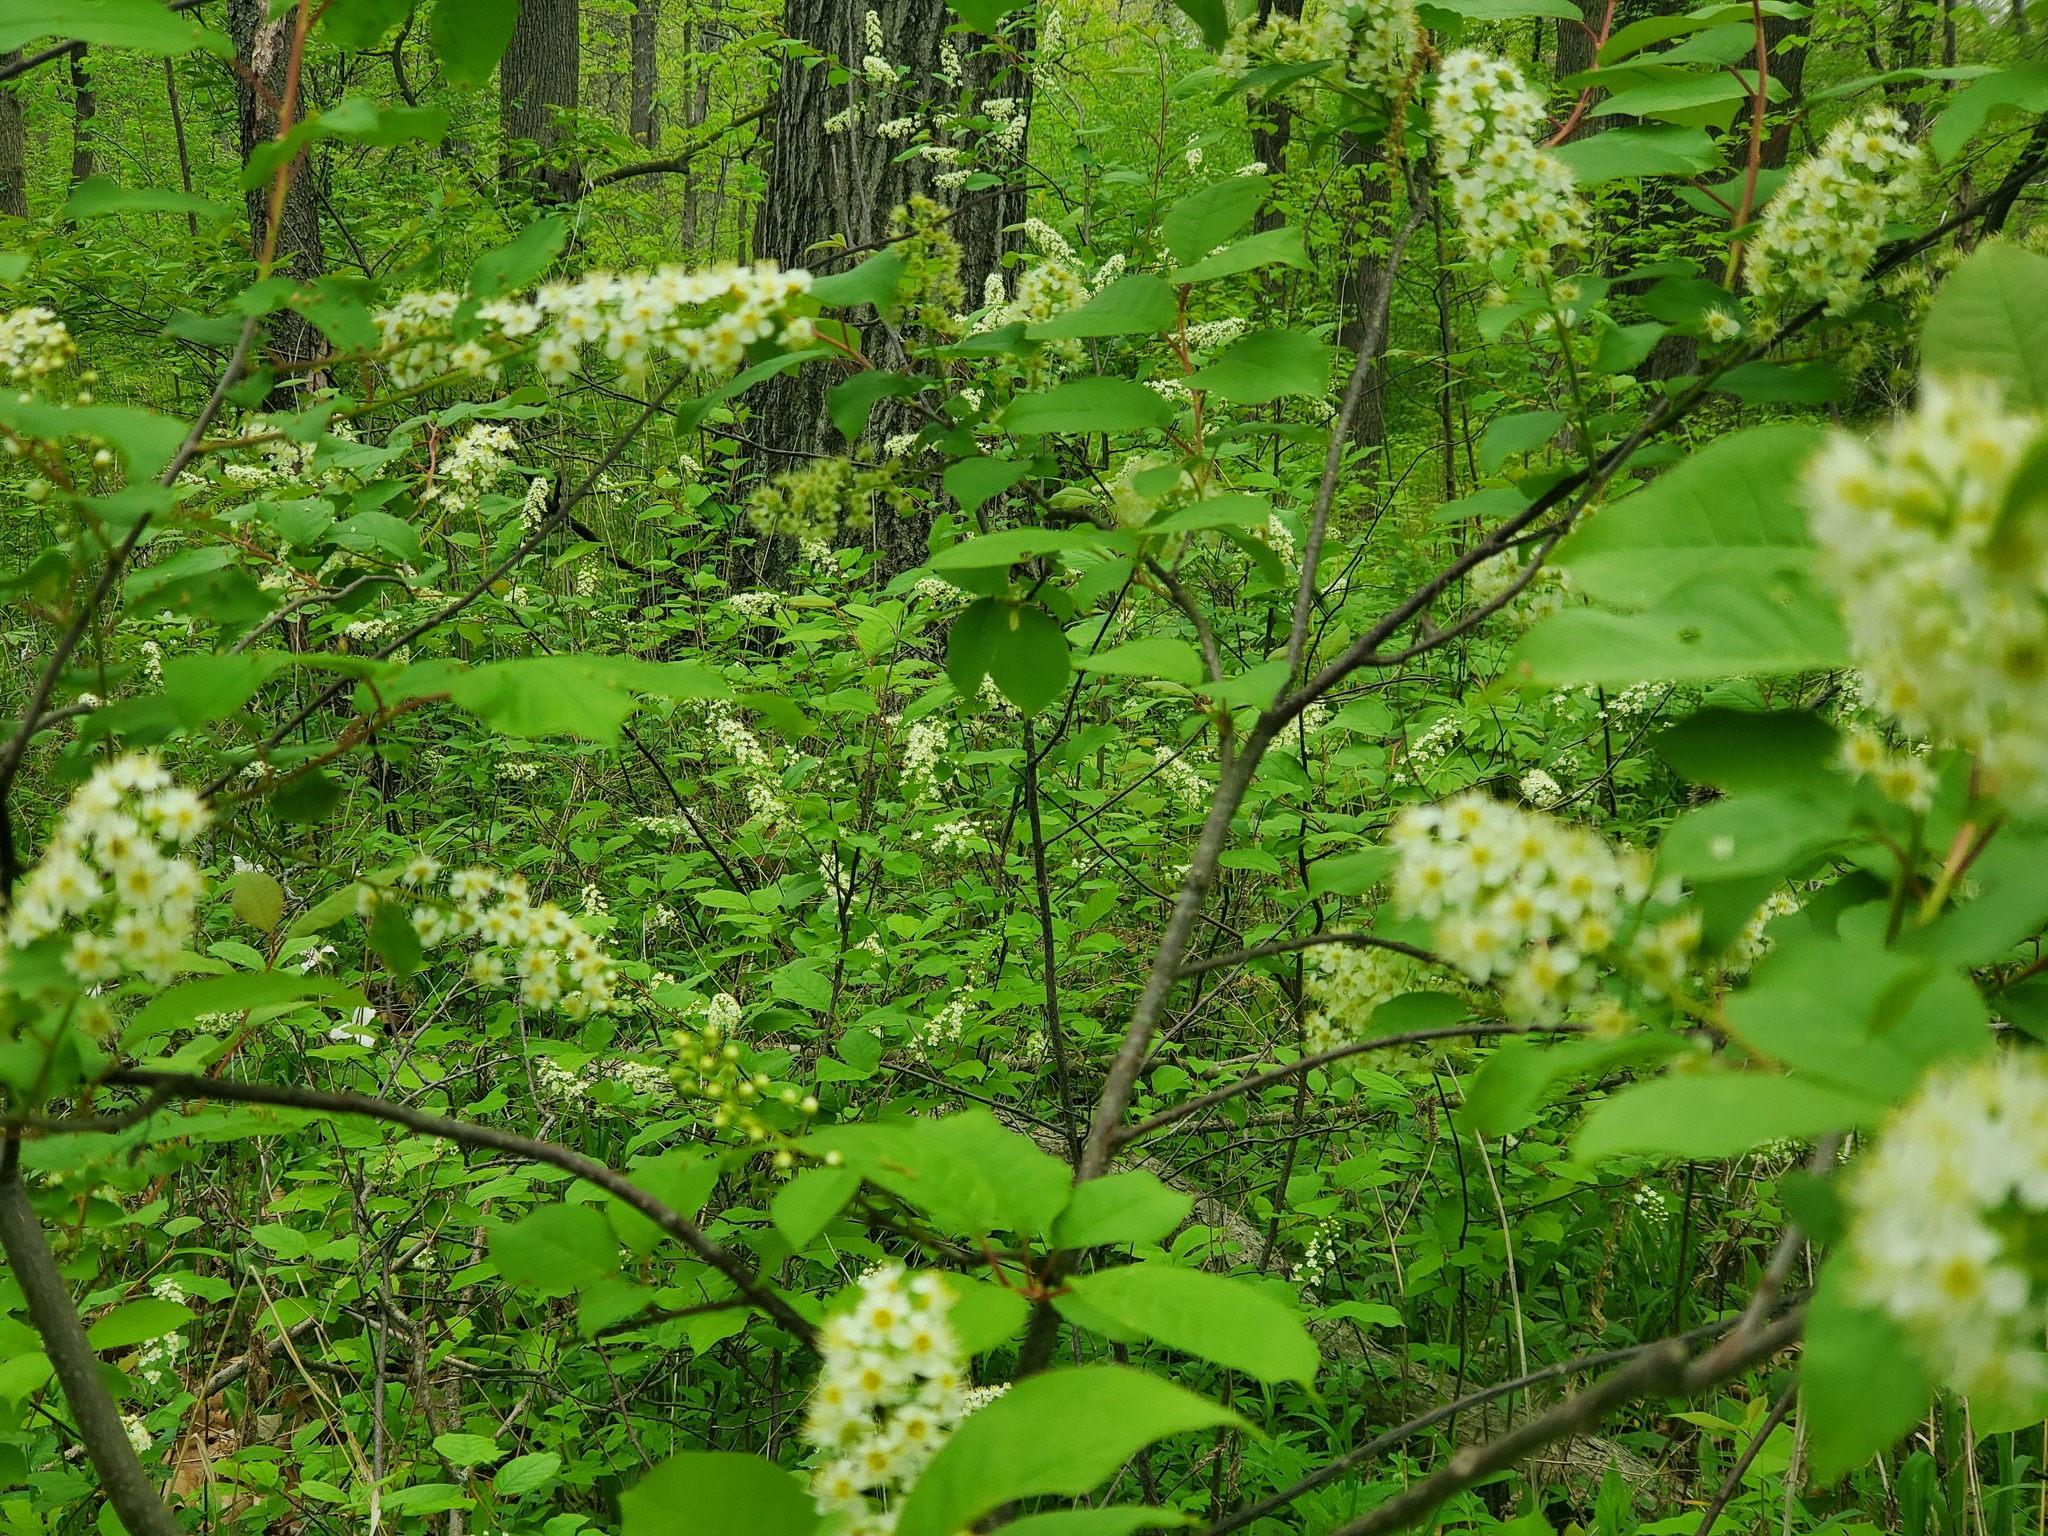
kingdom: Plantae
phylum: Tracheophyta
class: Magnoliopsida
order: Rosales
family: Rosaceae
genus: Prunus
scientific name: Prunus virginiana
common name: Chokecherry
